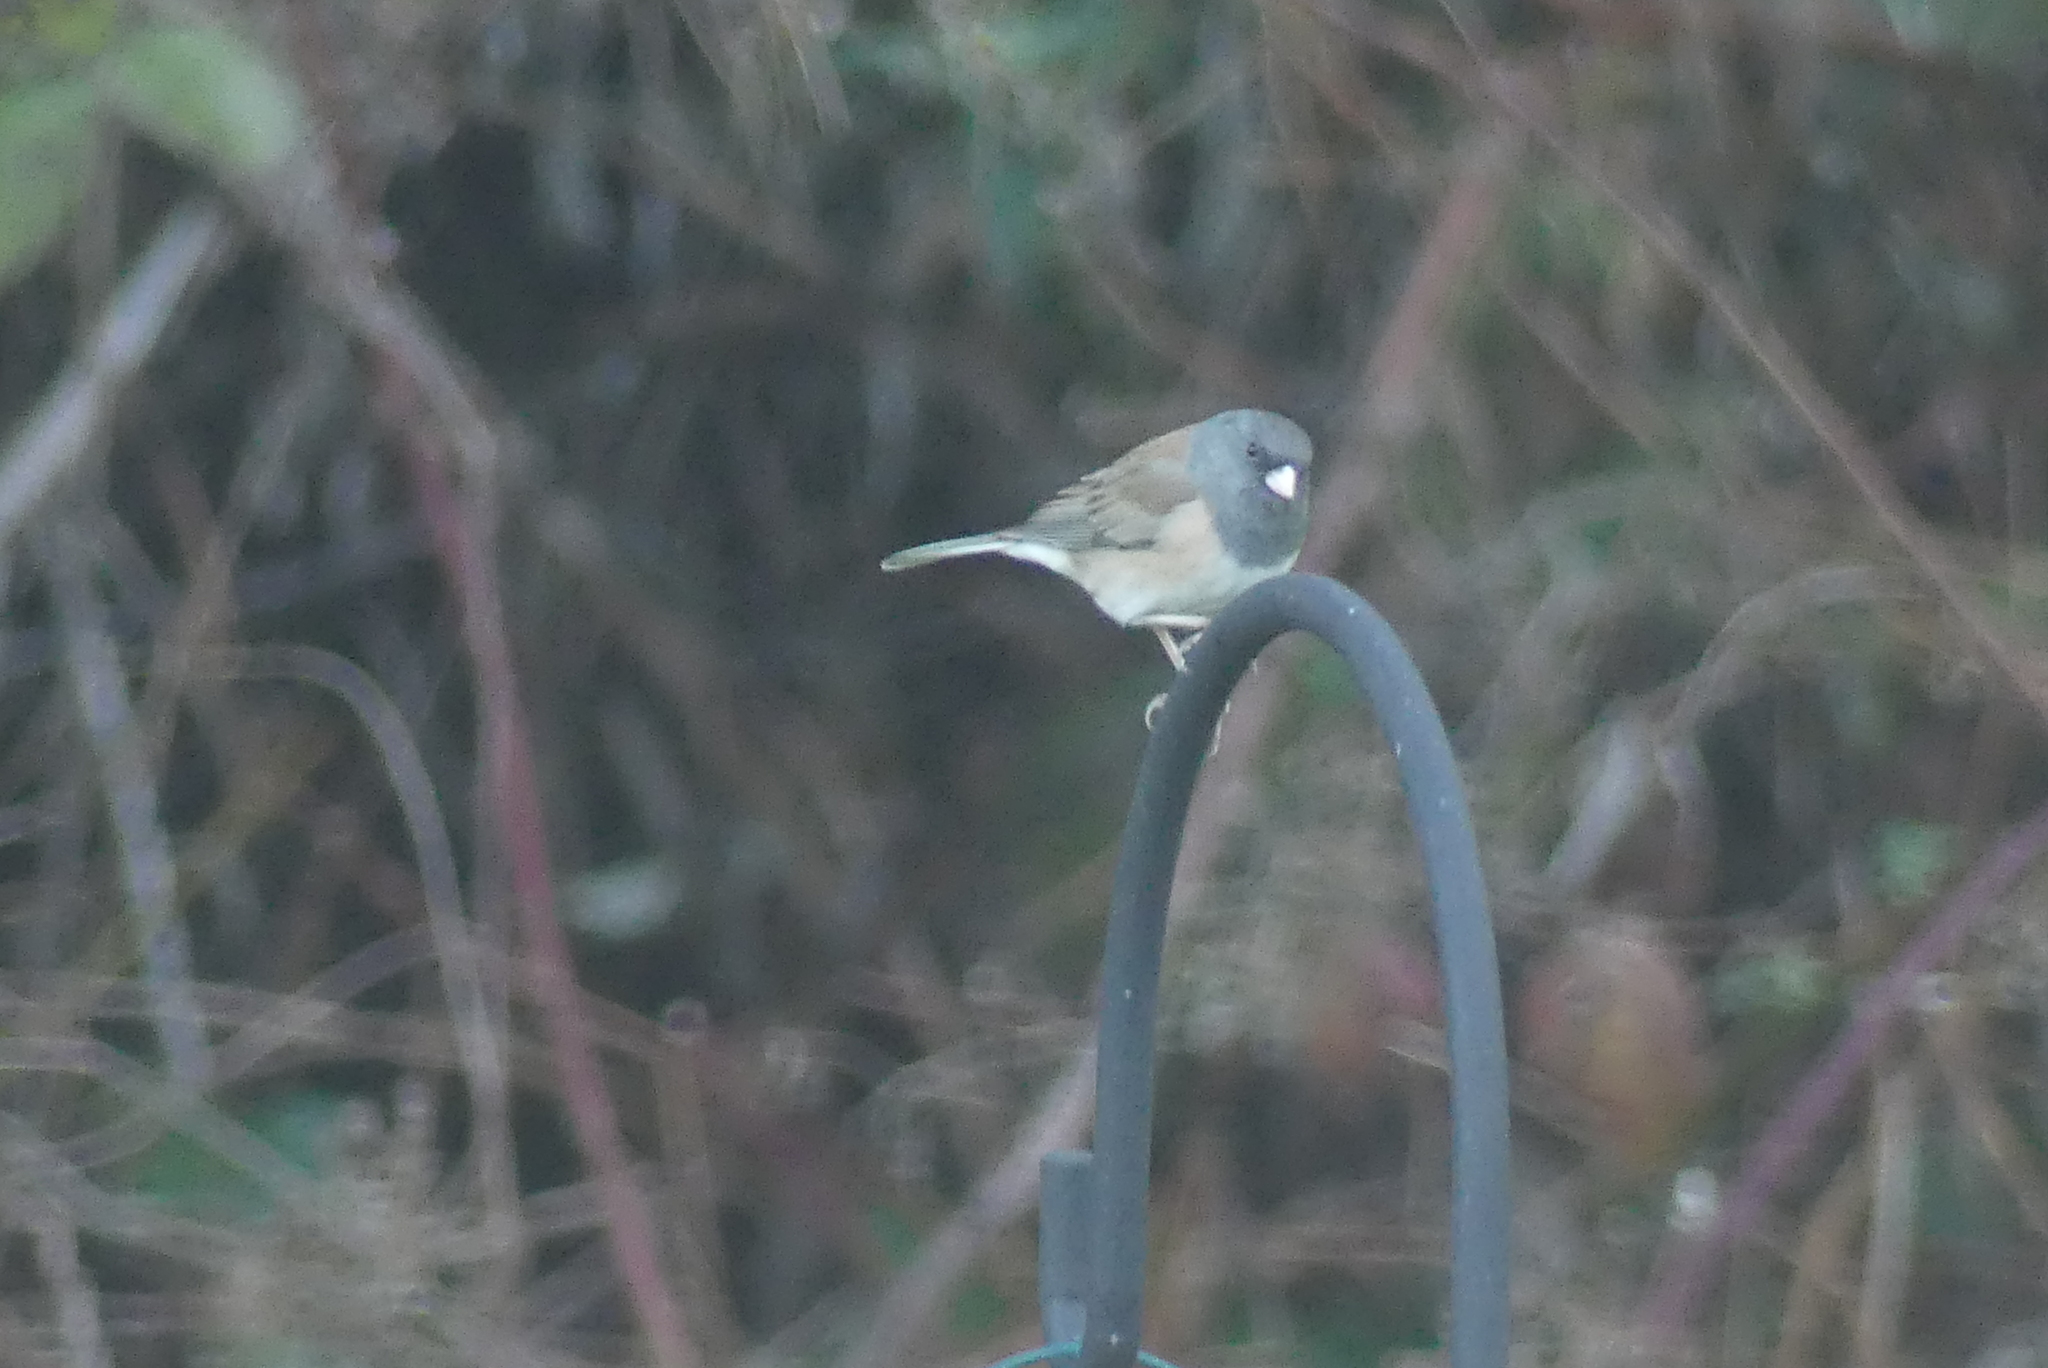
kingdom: Animalia
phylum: Chordata
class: Aves
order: Passeriformes
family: Passerellidae
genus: Junco
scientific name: Junco hyemalis
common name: Dark-eyed junco
